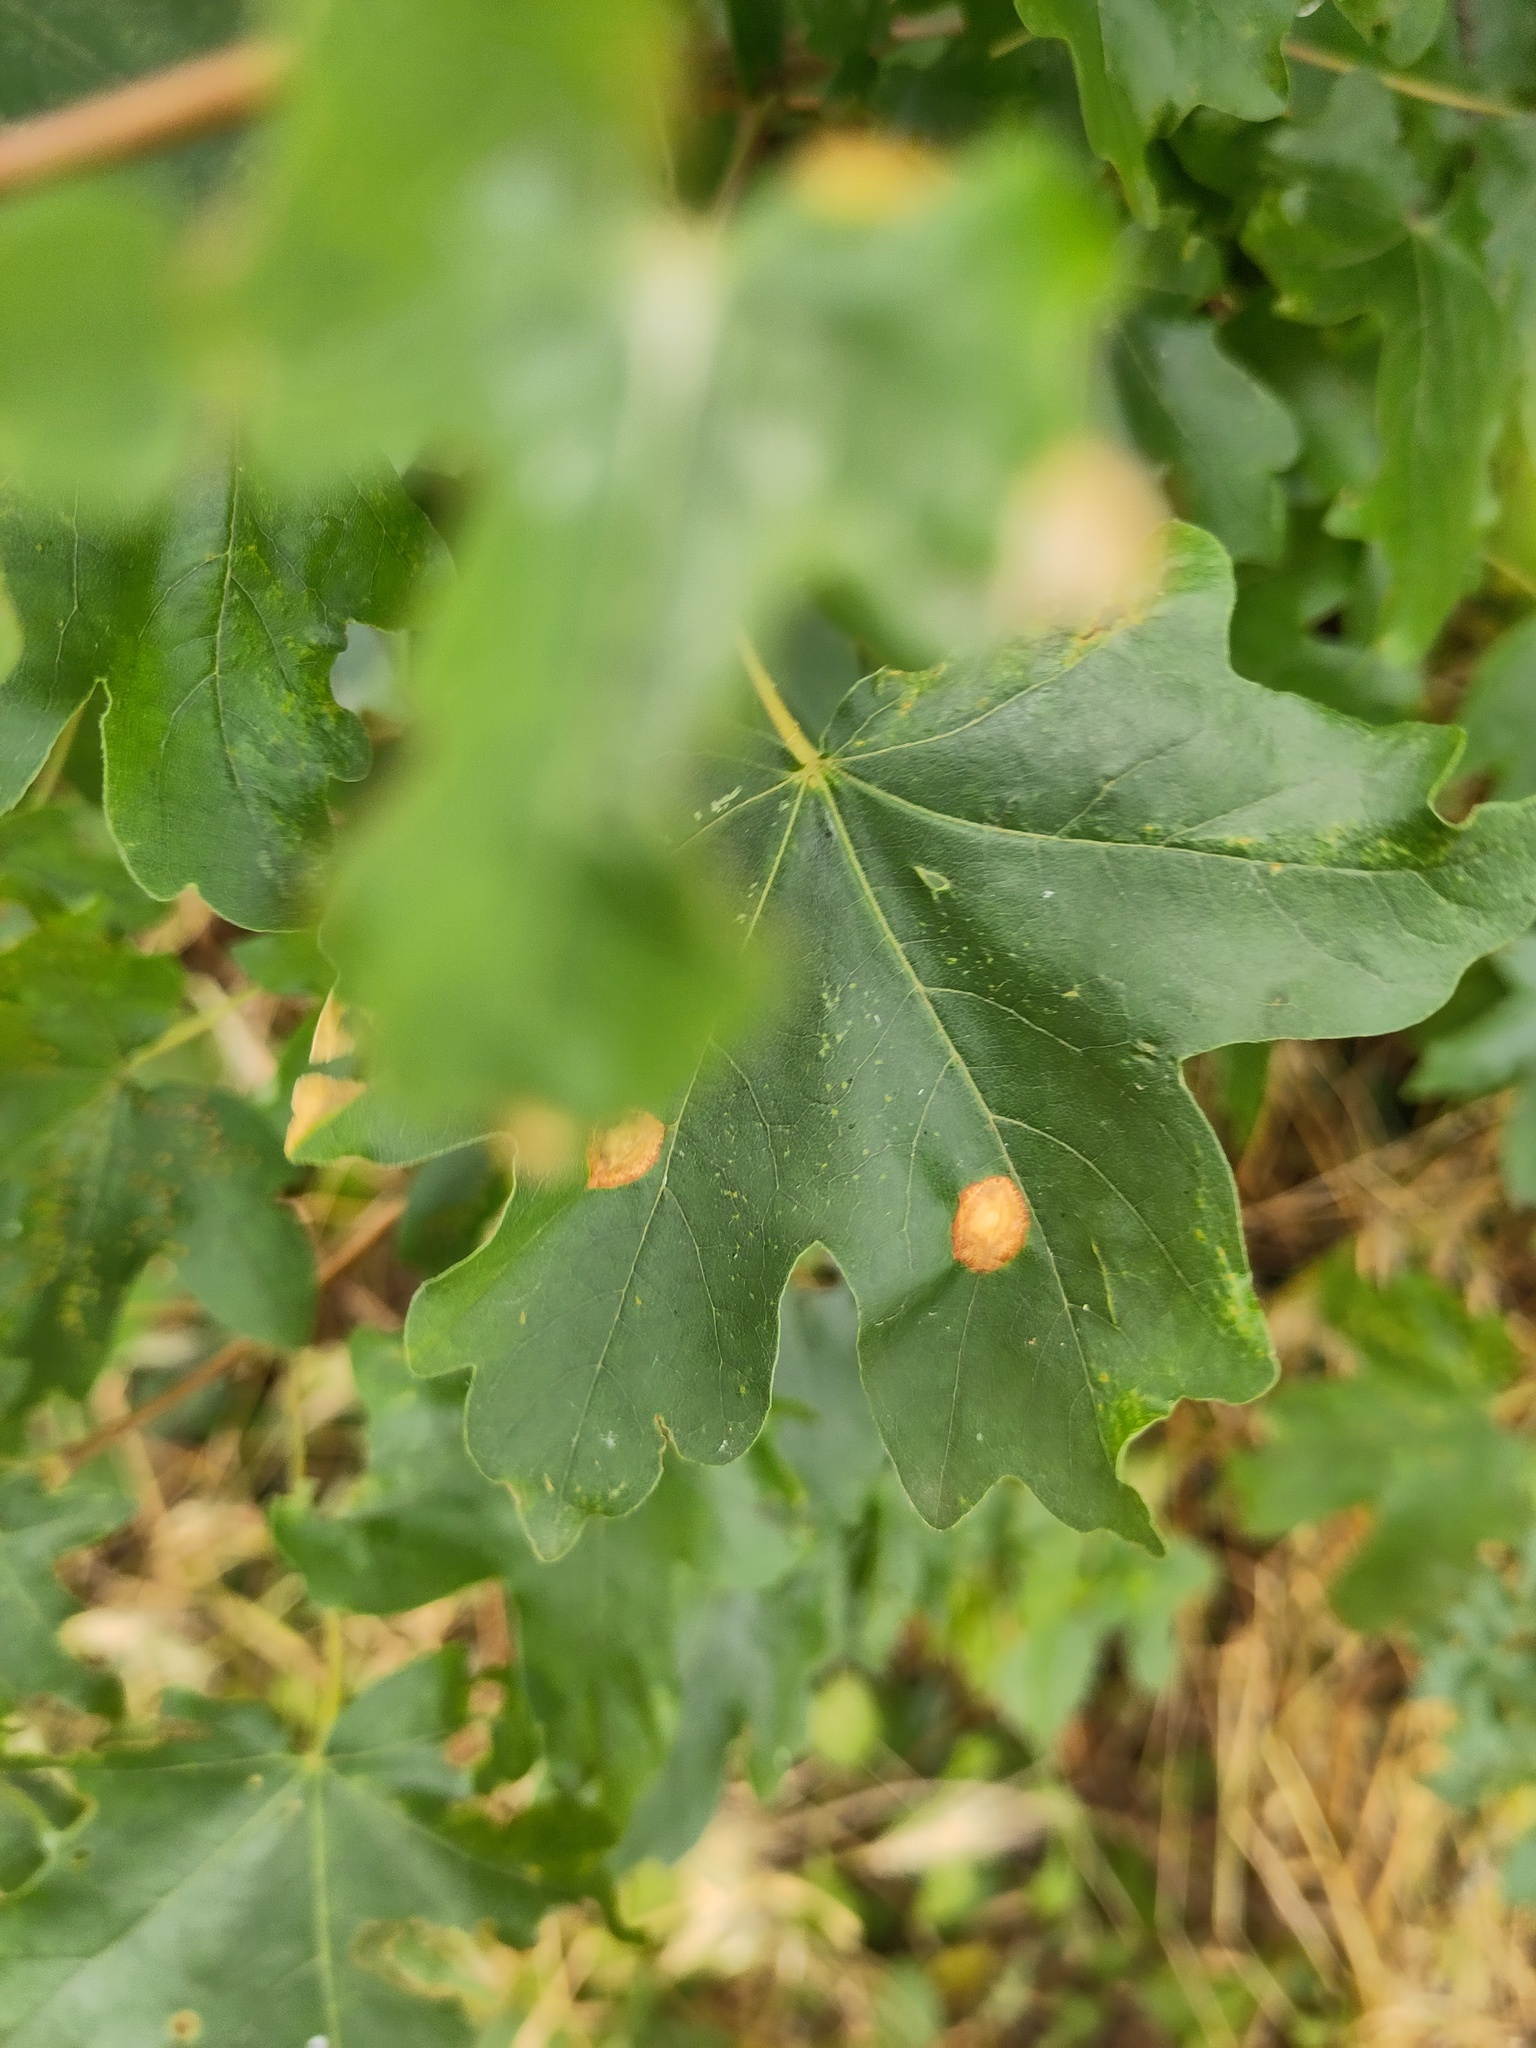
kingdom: Plantae
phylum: Tracheophyta
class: Magnoliopsida
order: Sapindales
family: Sapindaceae
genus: Acer
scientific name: Acer campestre
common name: Field maple
